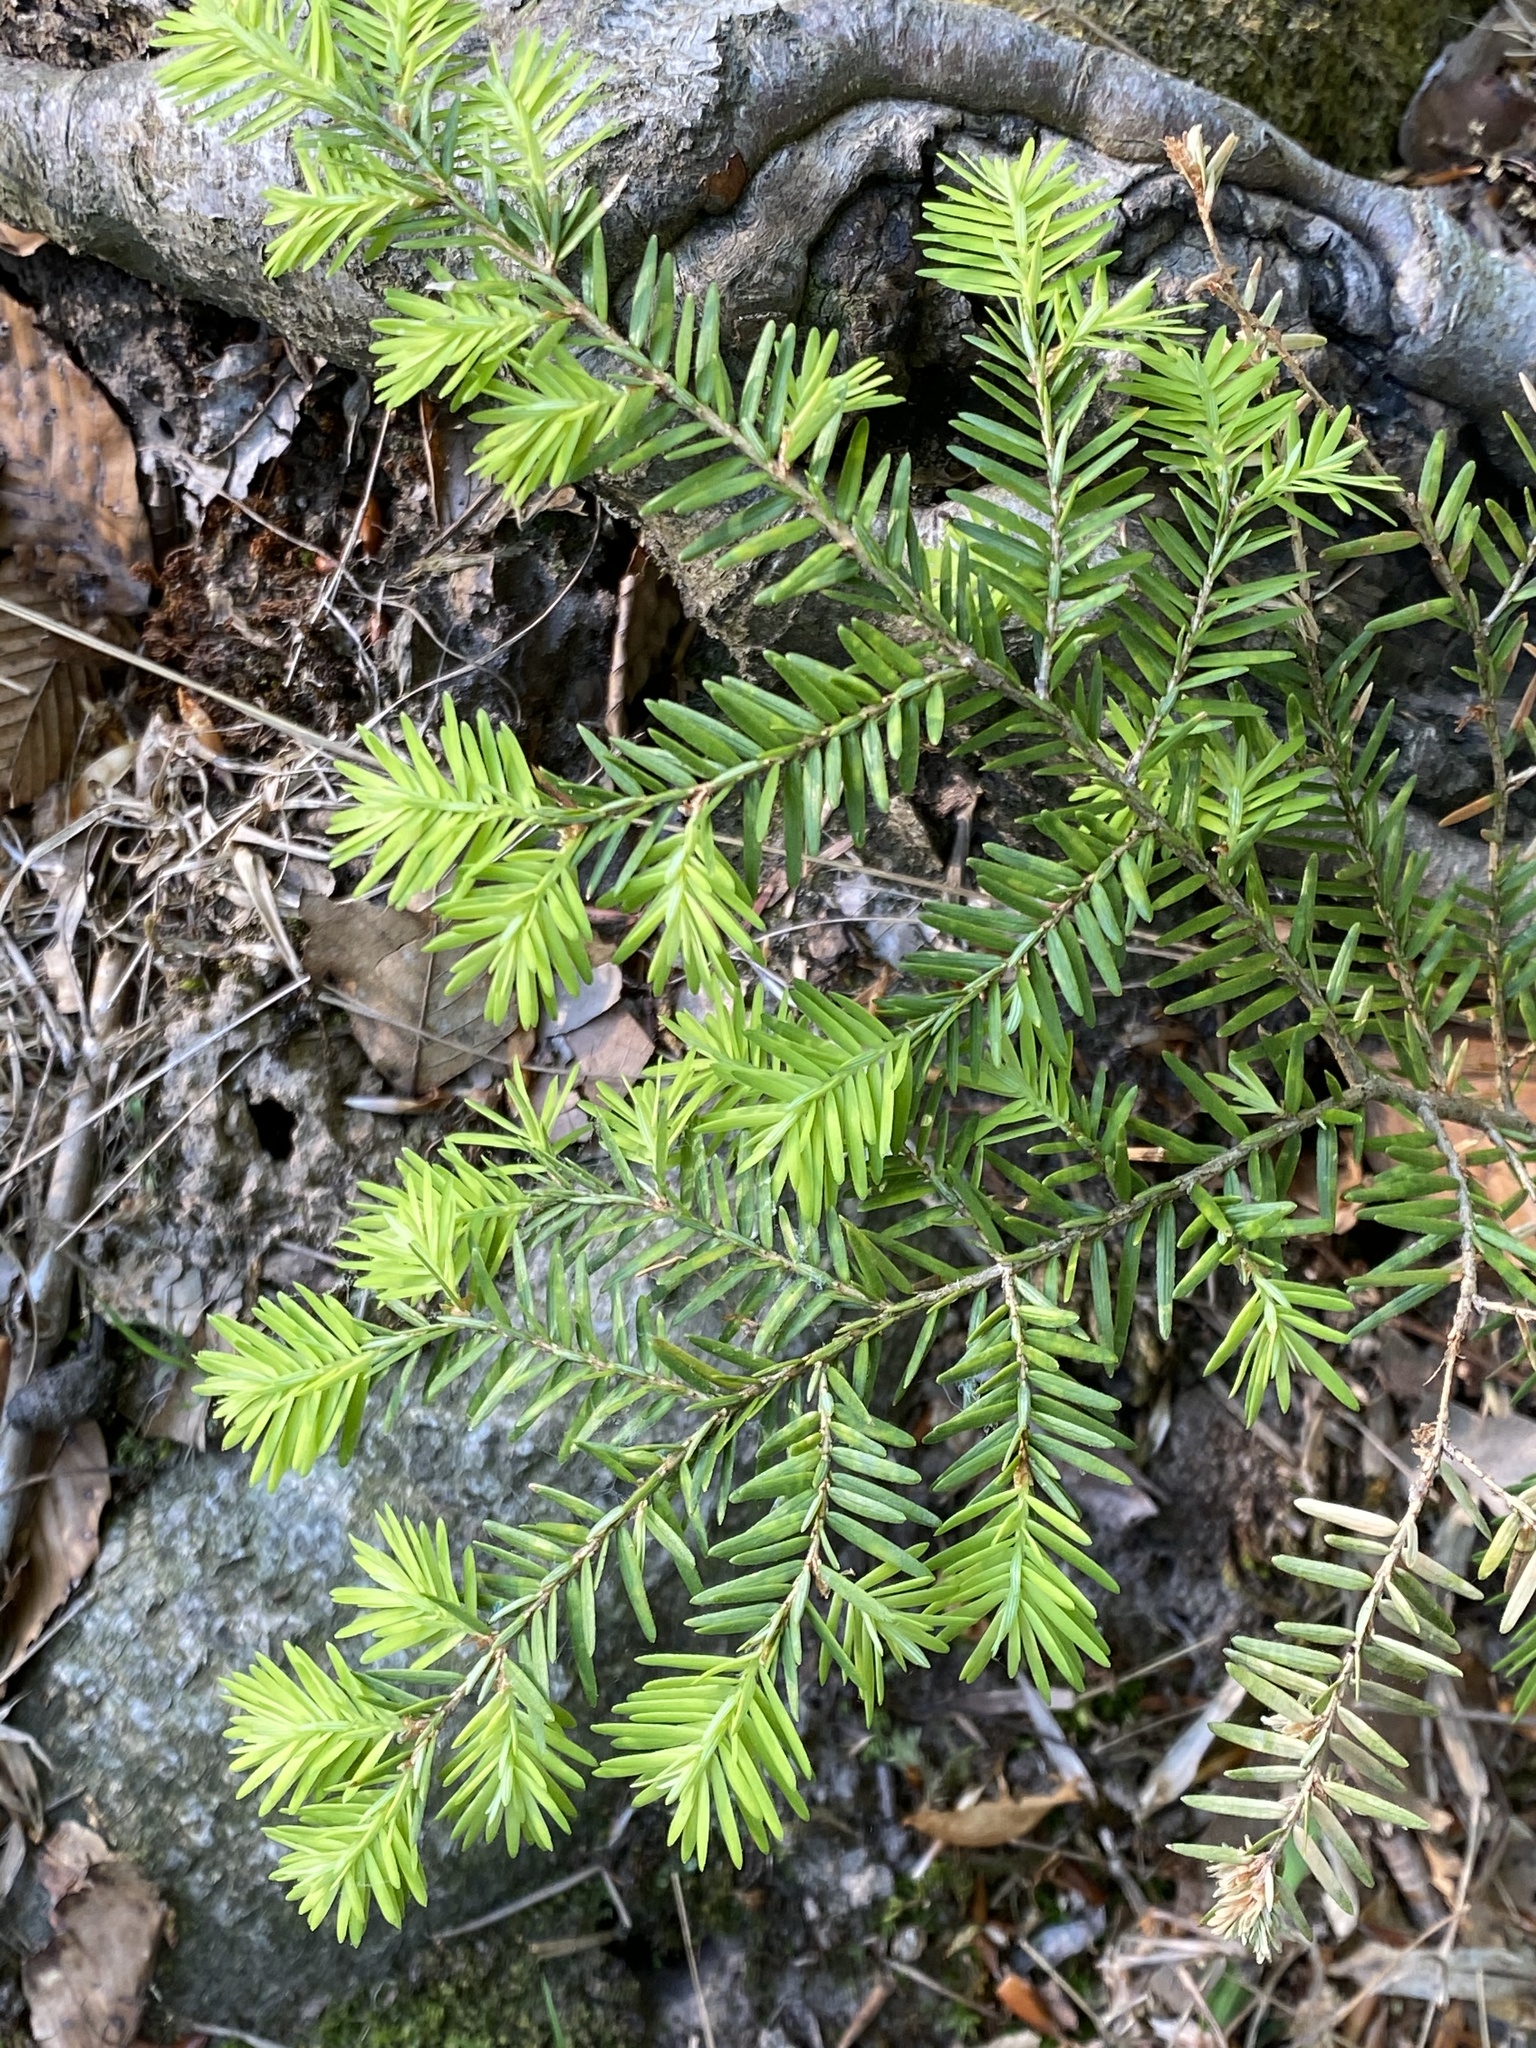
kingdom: Plantae
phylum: Tracheophyta
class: Pinopsida
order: Pinales
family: Pinaceae
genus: Tsuga
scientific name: Tsuga canadensis
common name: Eastern hemlock
